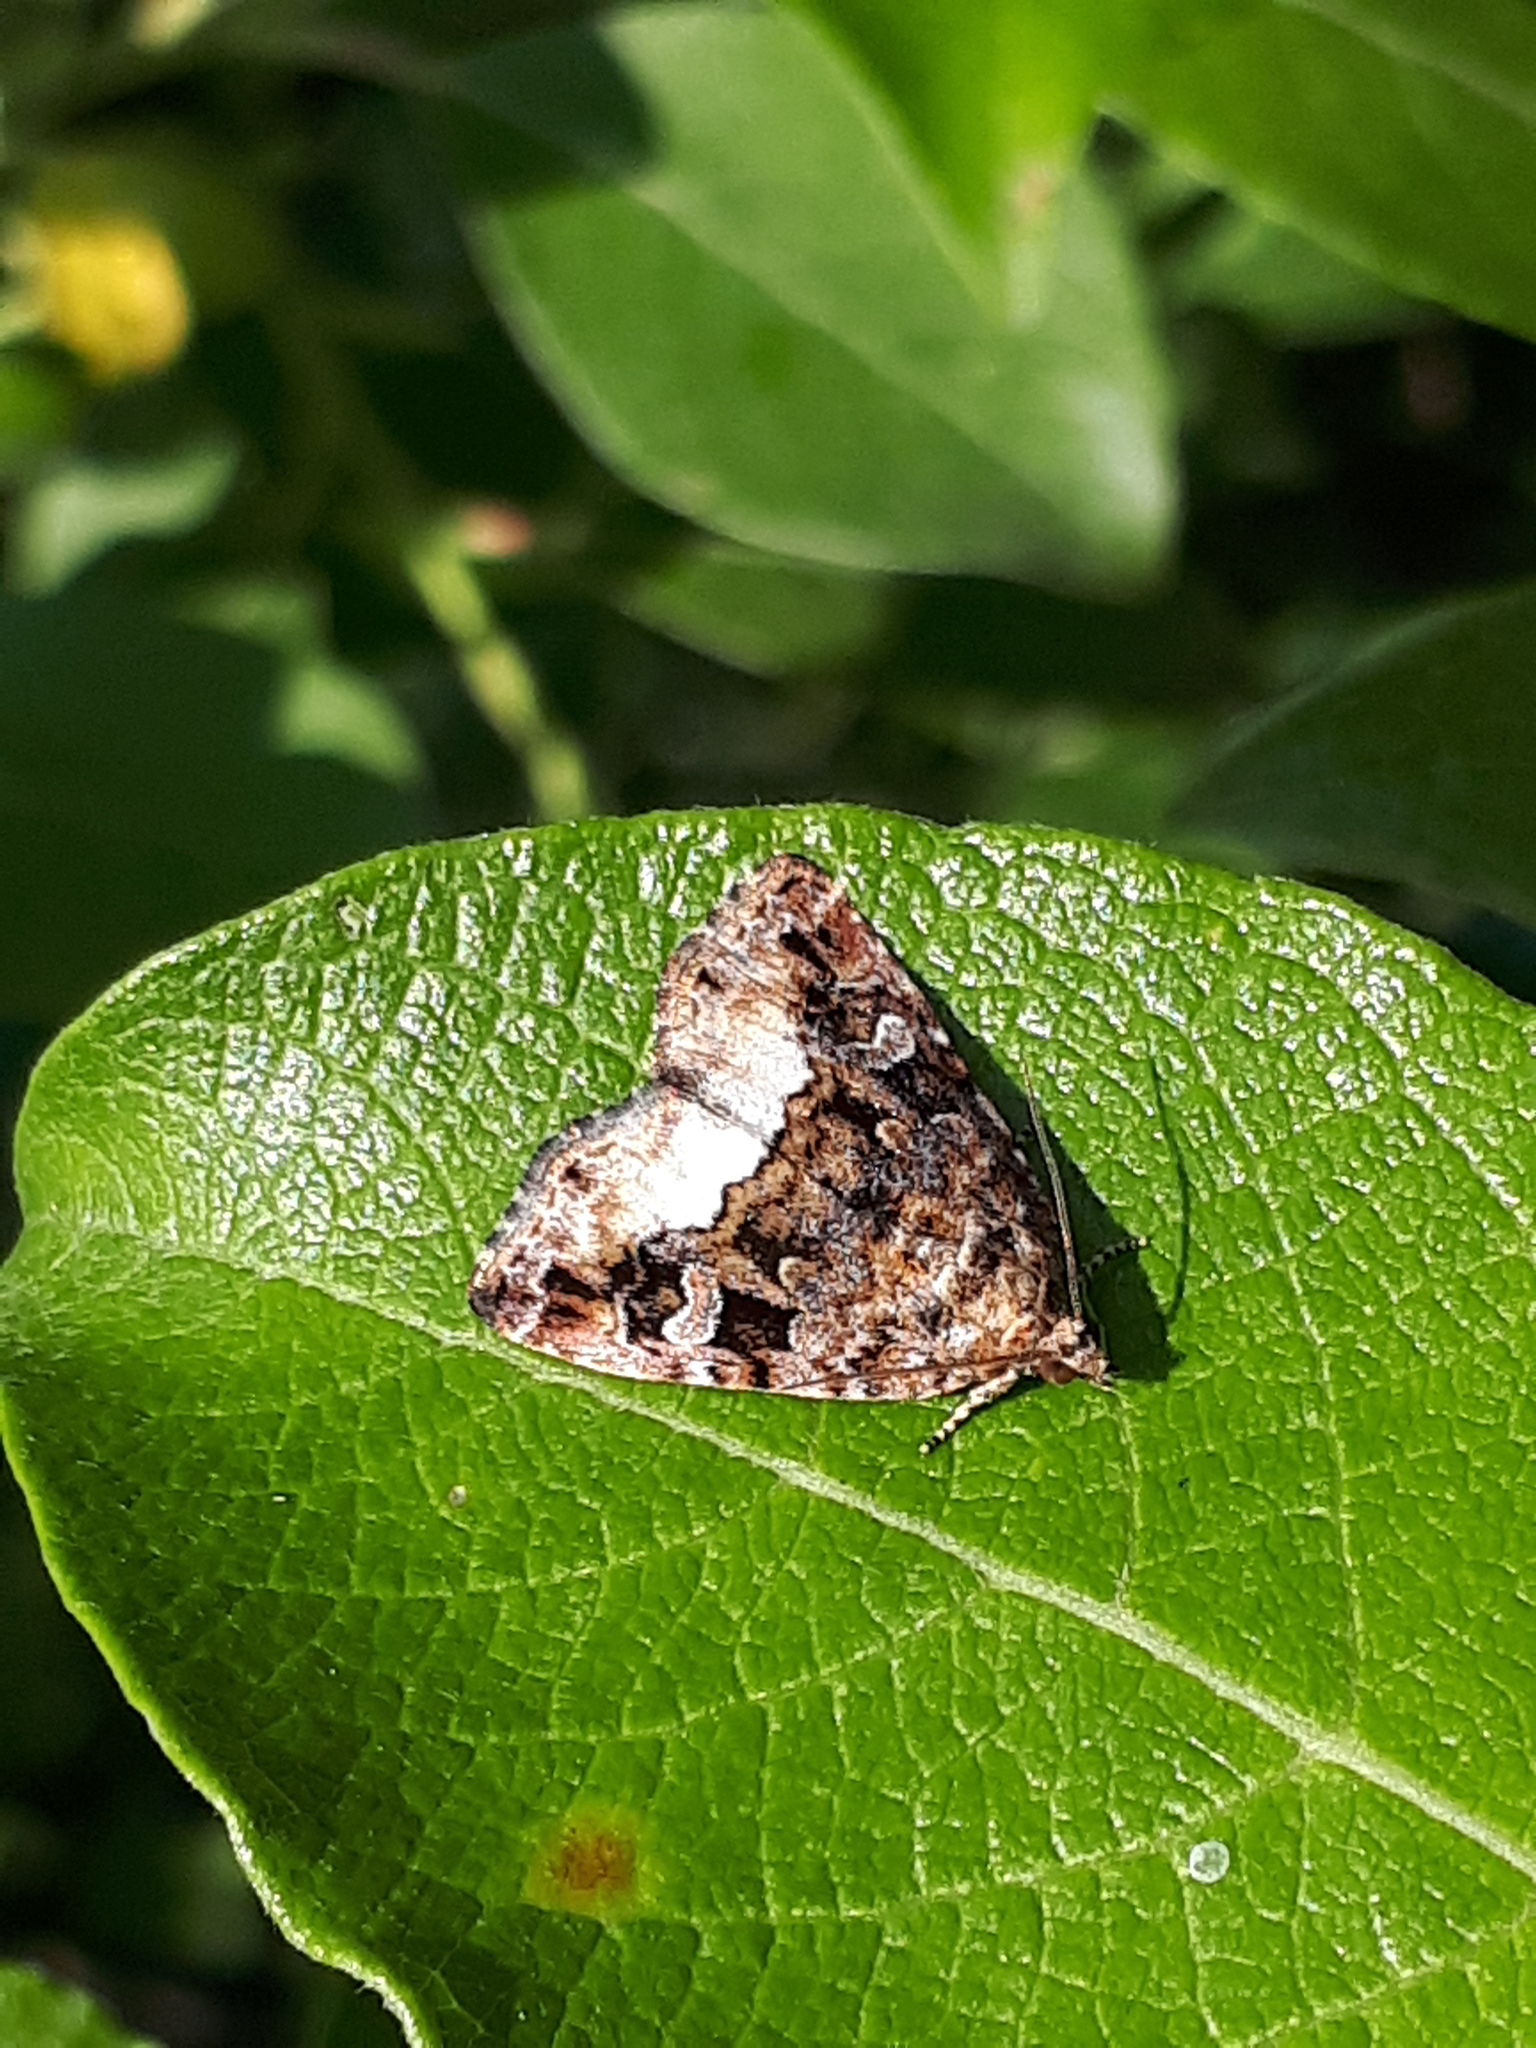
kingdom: Animalia
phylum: Arthropoda
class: Insecta
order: Lepidoptera
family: Noctuidae
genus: Deltote
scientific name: Deltote pygarga
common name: Marbled white spot
